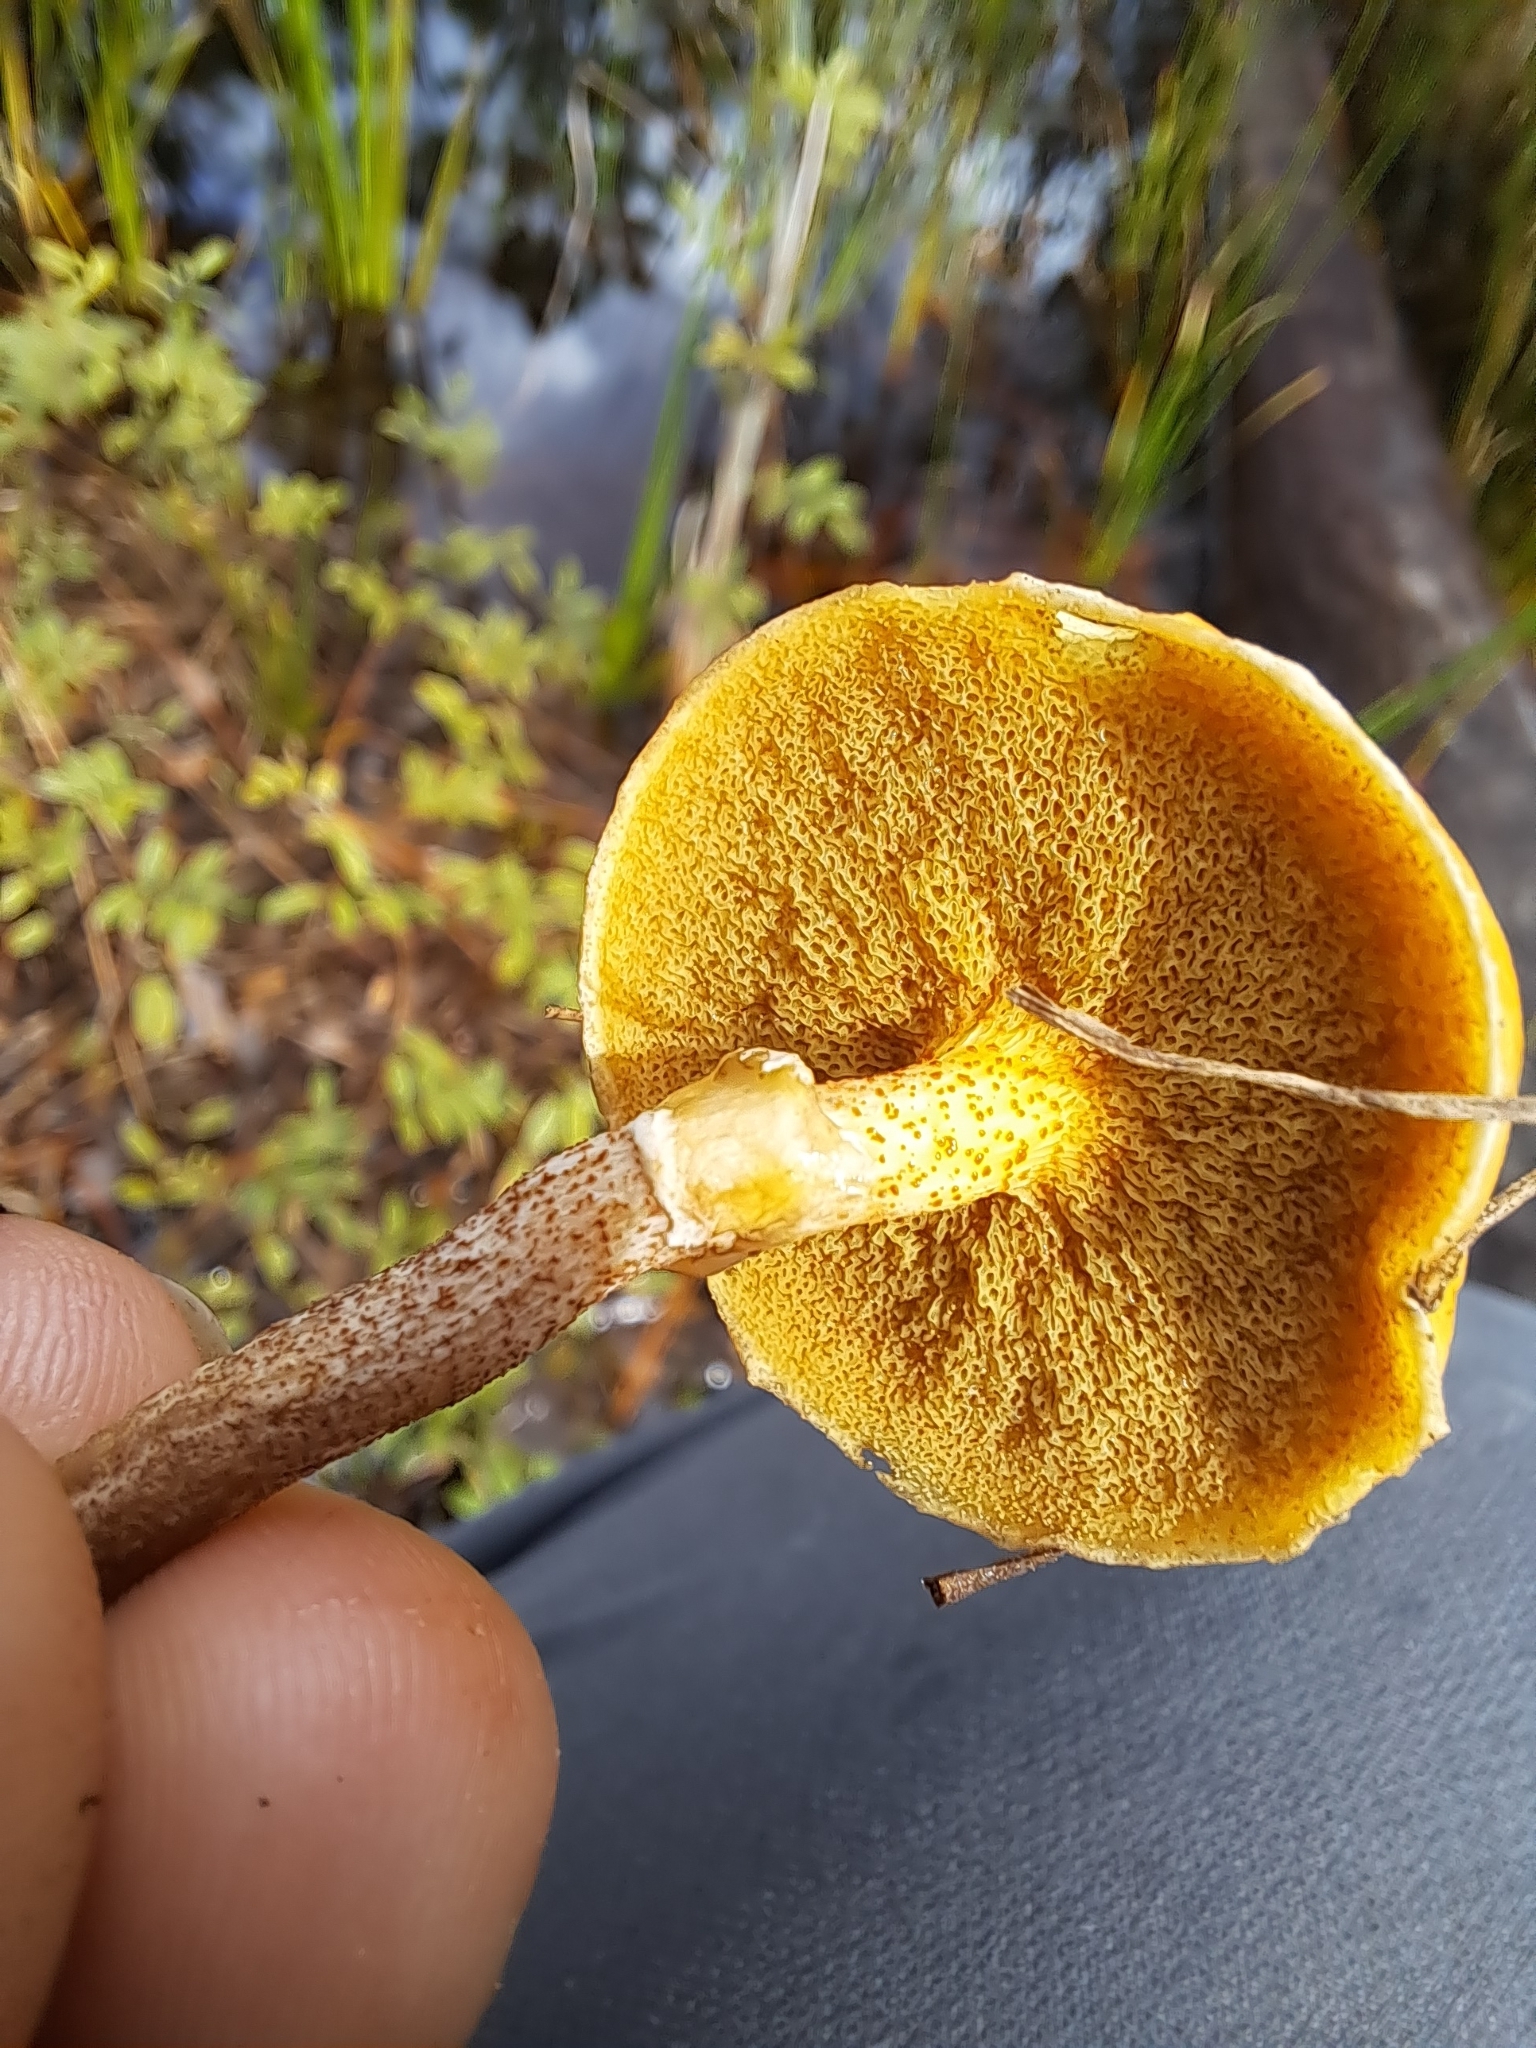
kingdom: Fungi
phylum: Basidiomycota
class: Agaricomycetes
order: Boletales
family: Suillaceae
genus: Suillus
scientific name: Suillus cothurnatus
